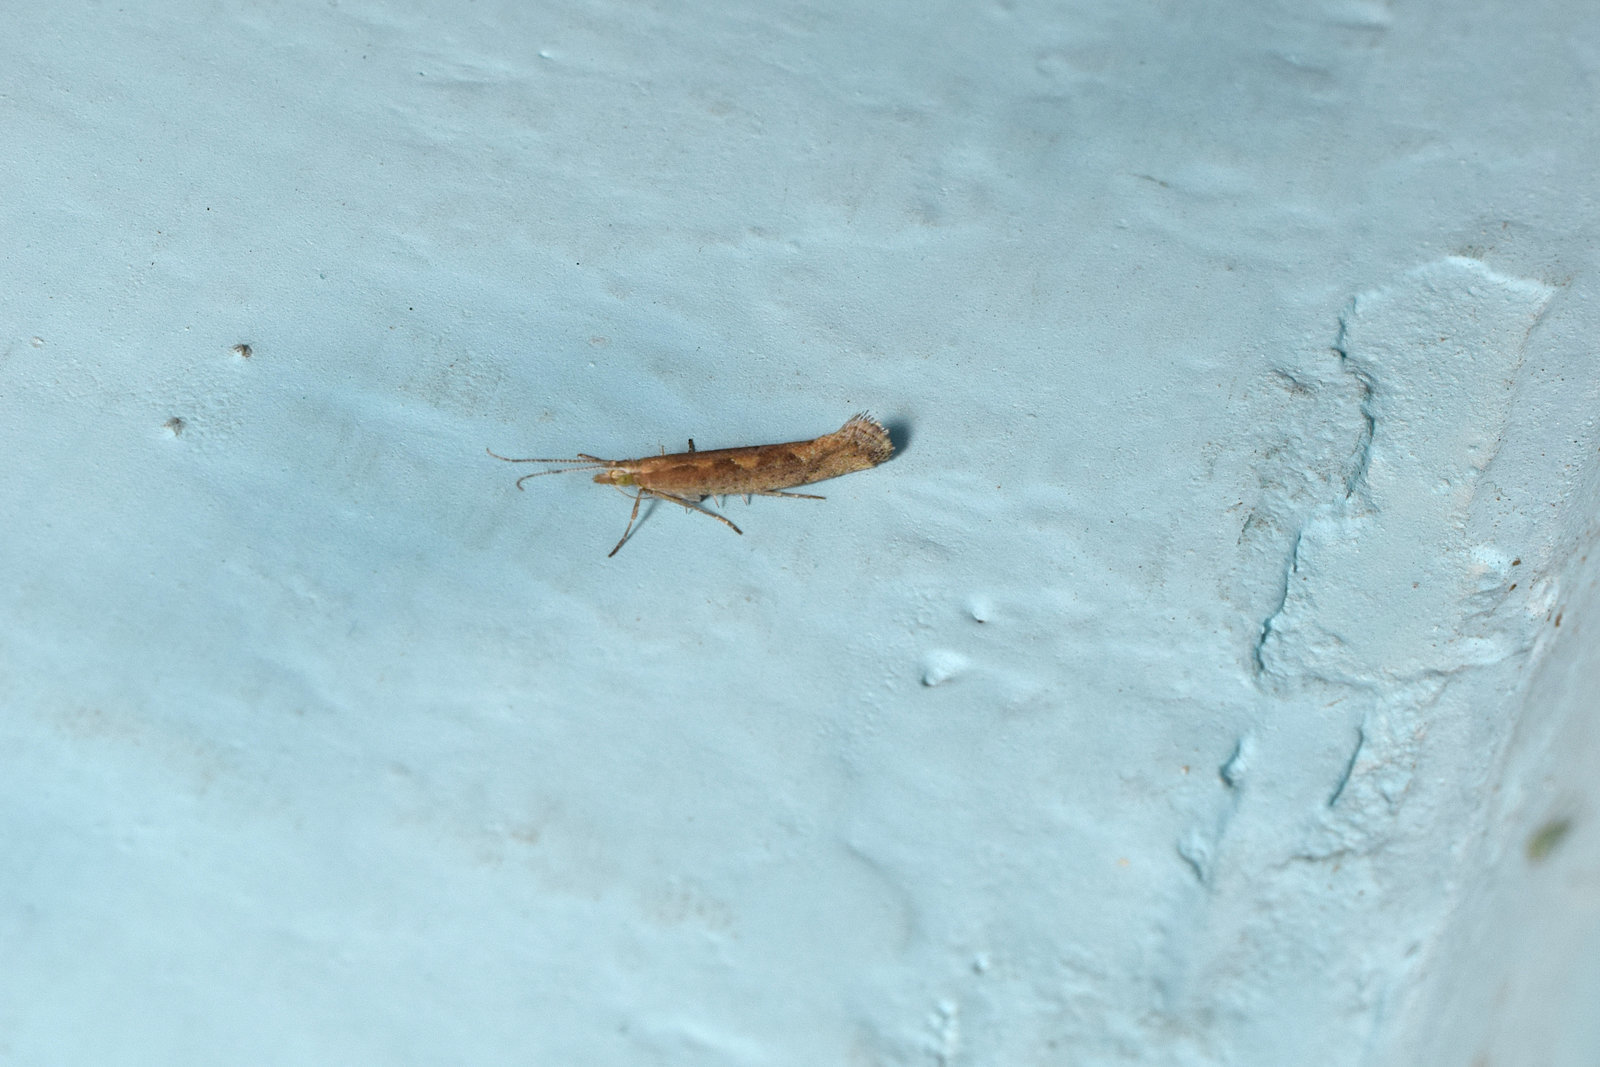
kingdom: Animalia
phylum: Arthropoda
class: Insecta
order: Lepidoptera
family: Plutellidae
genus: Plutella
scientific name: Plutella xylostella
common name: Diamond-back moth
